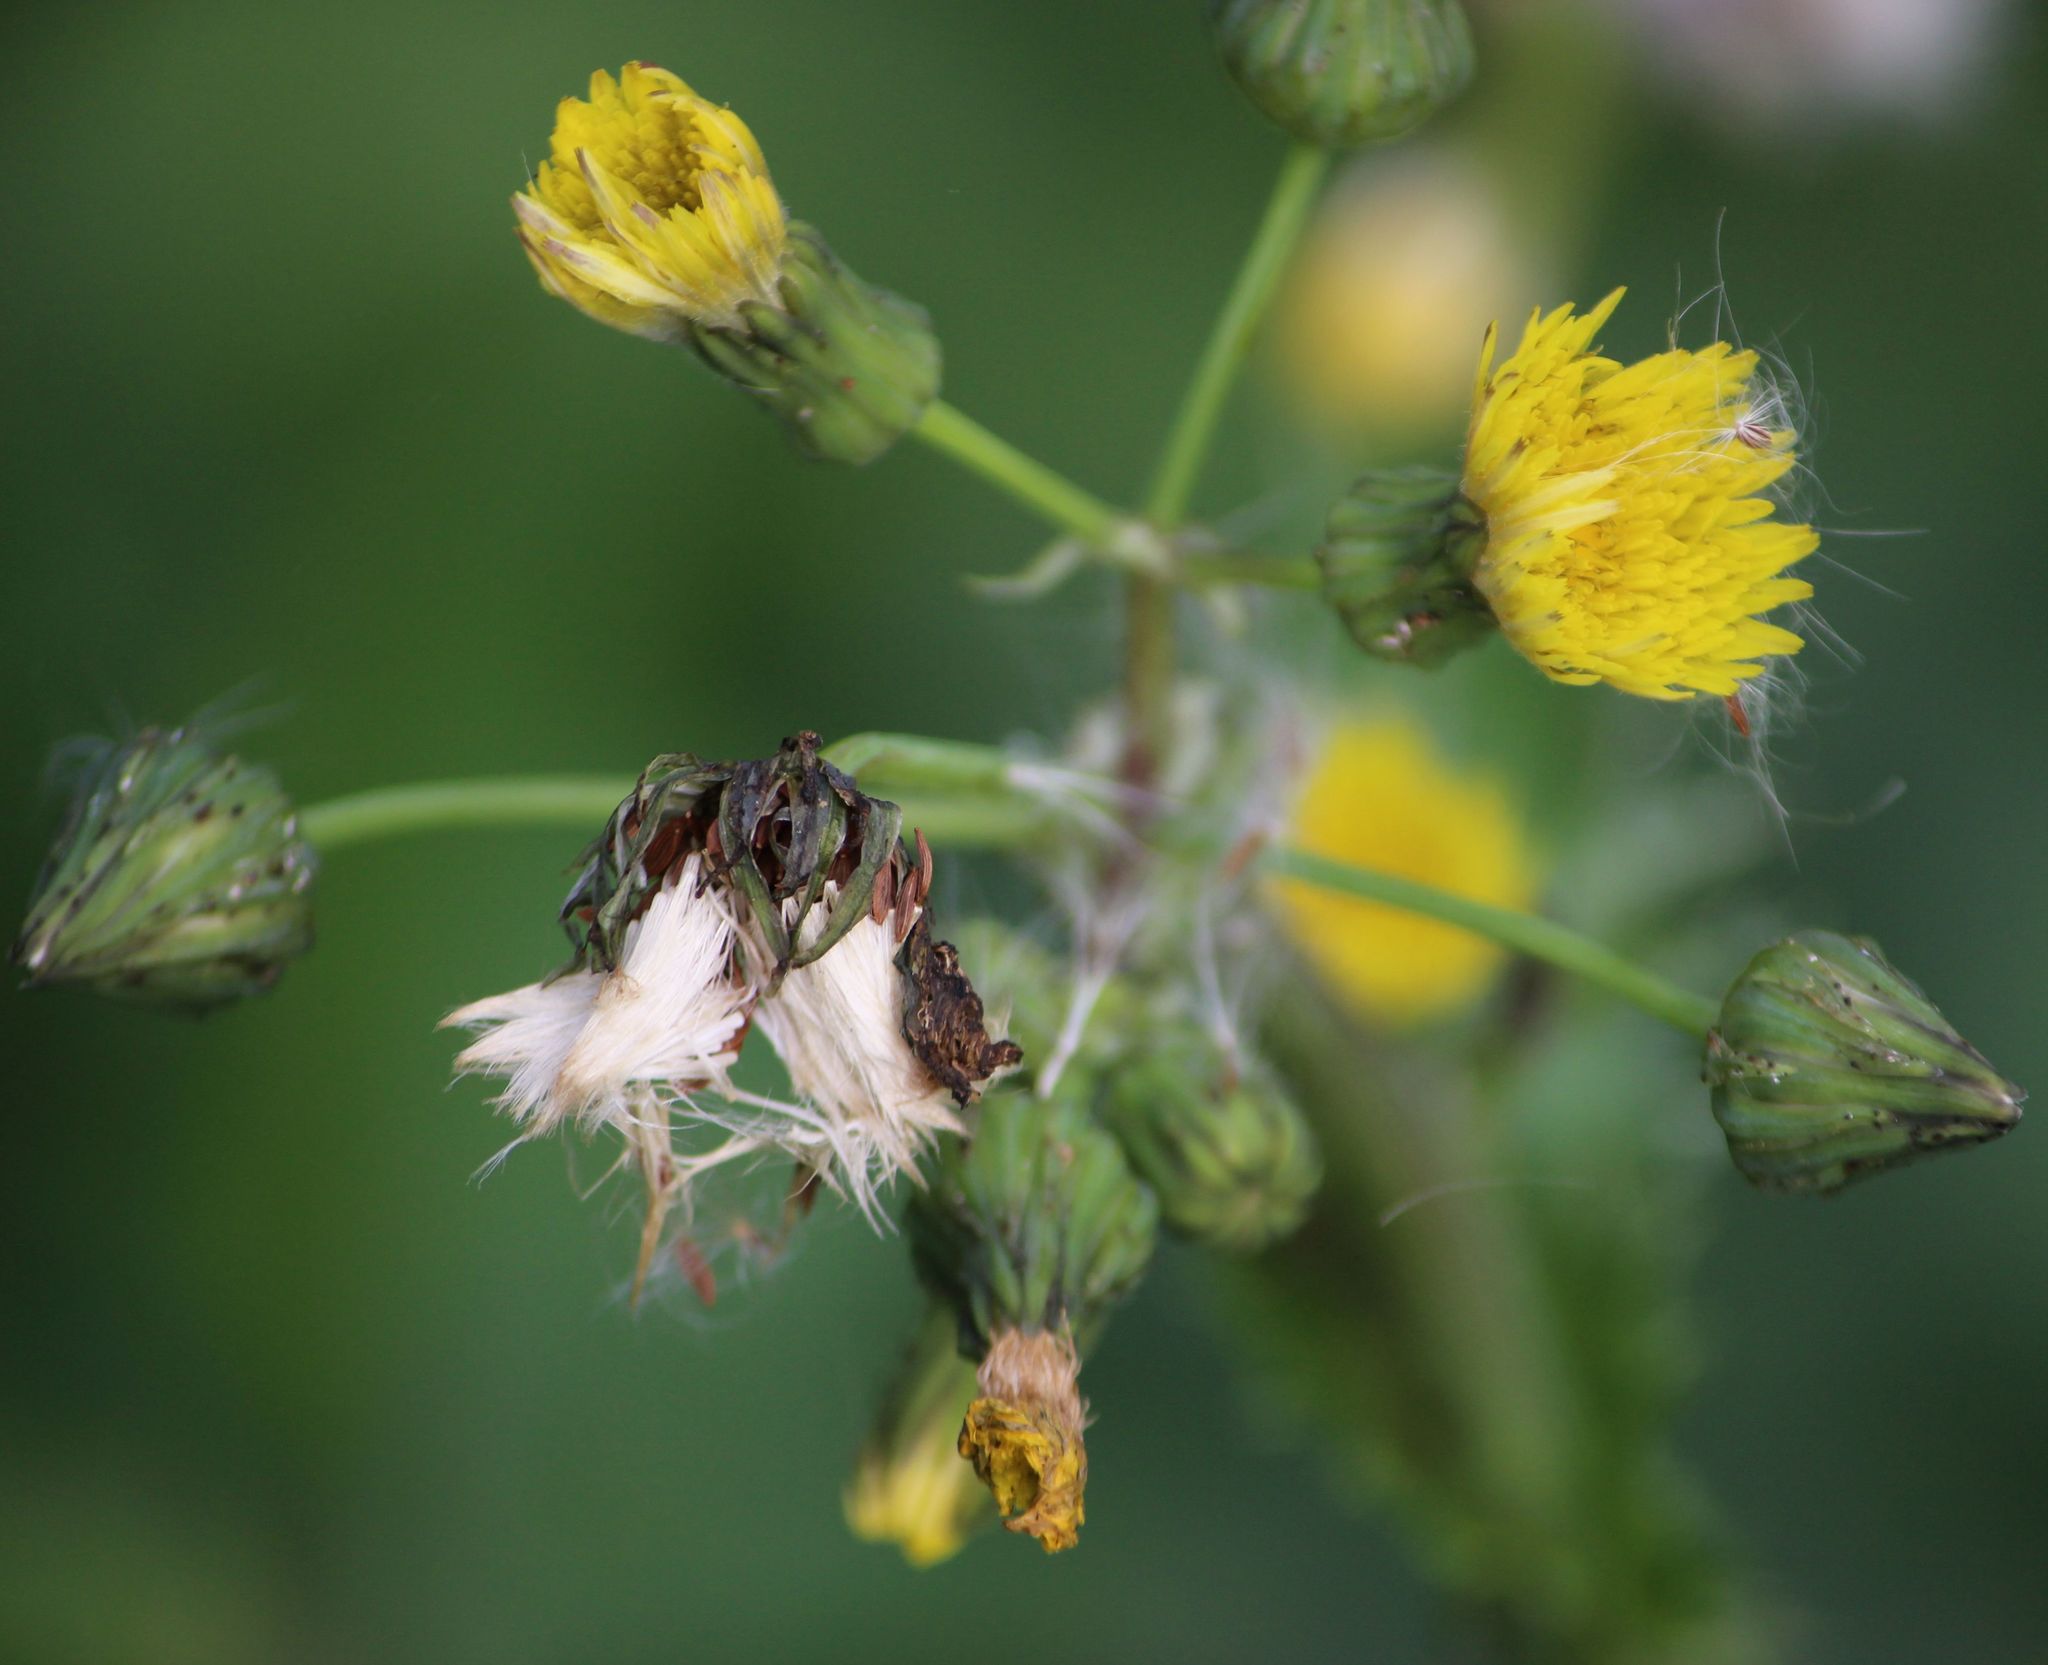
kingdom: Plantae
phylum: Tracheophyta
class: Magnoliopsida
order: Asterales
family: Asteraceae
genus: Sonchus
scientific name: Sonchus asper
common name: Prickly sow-thistle
